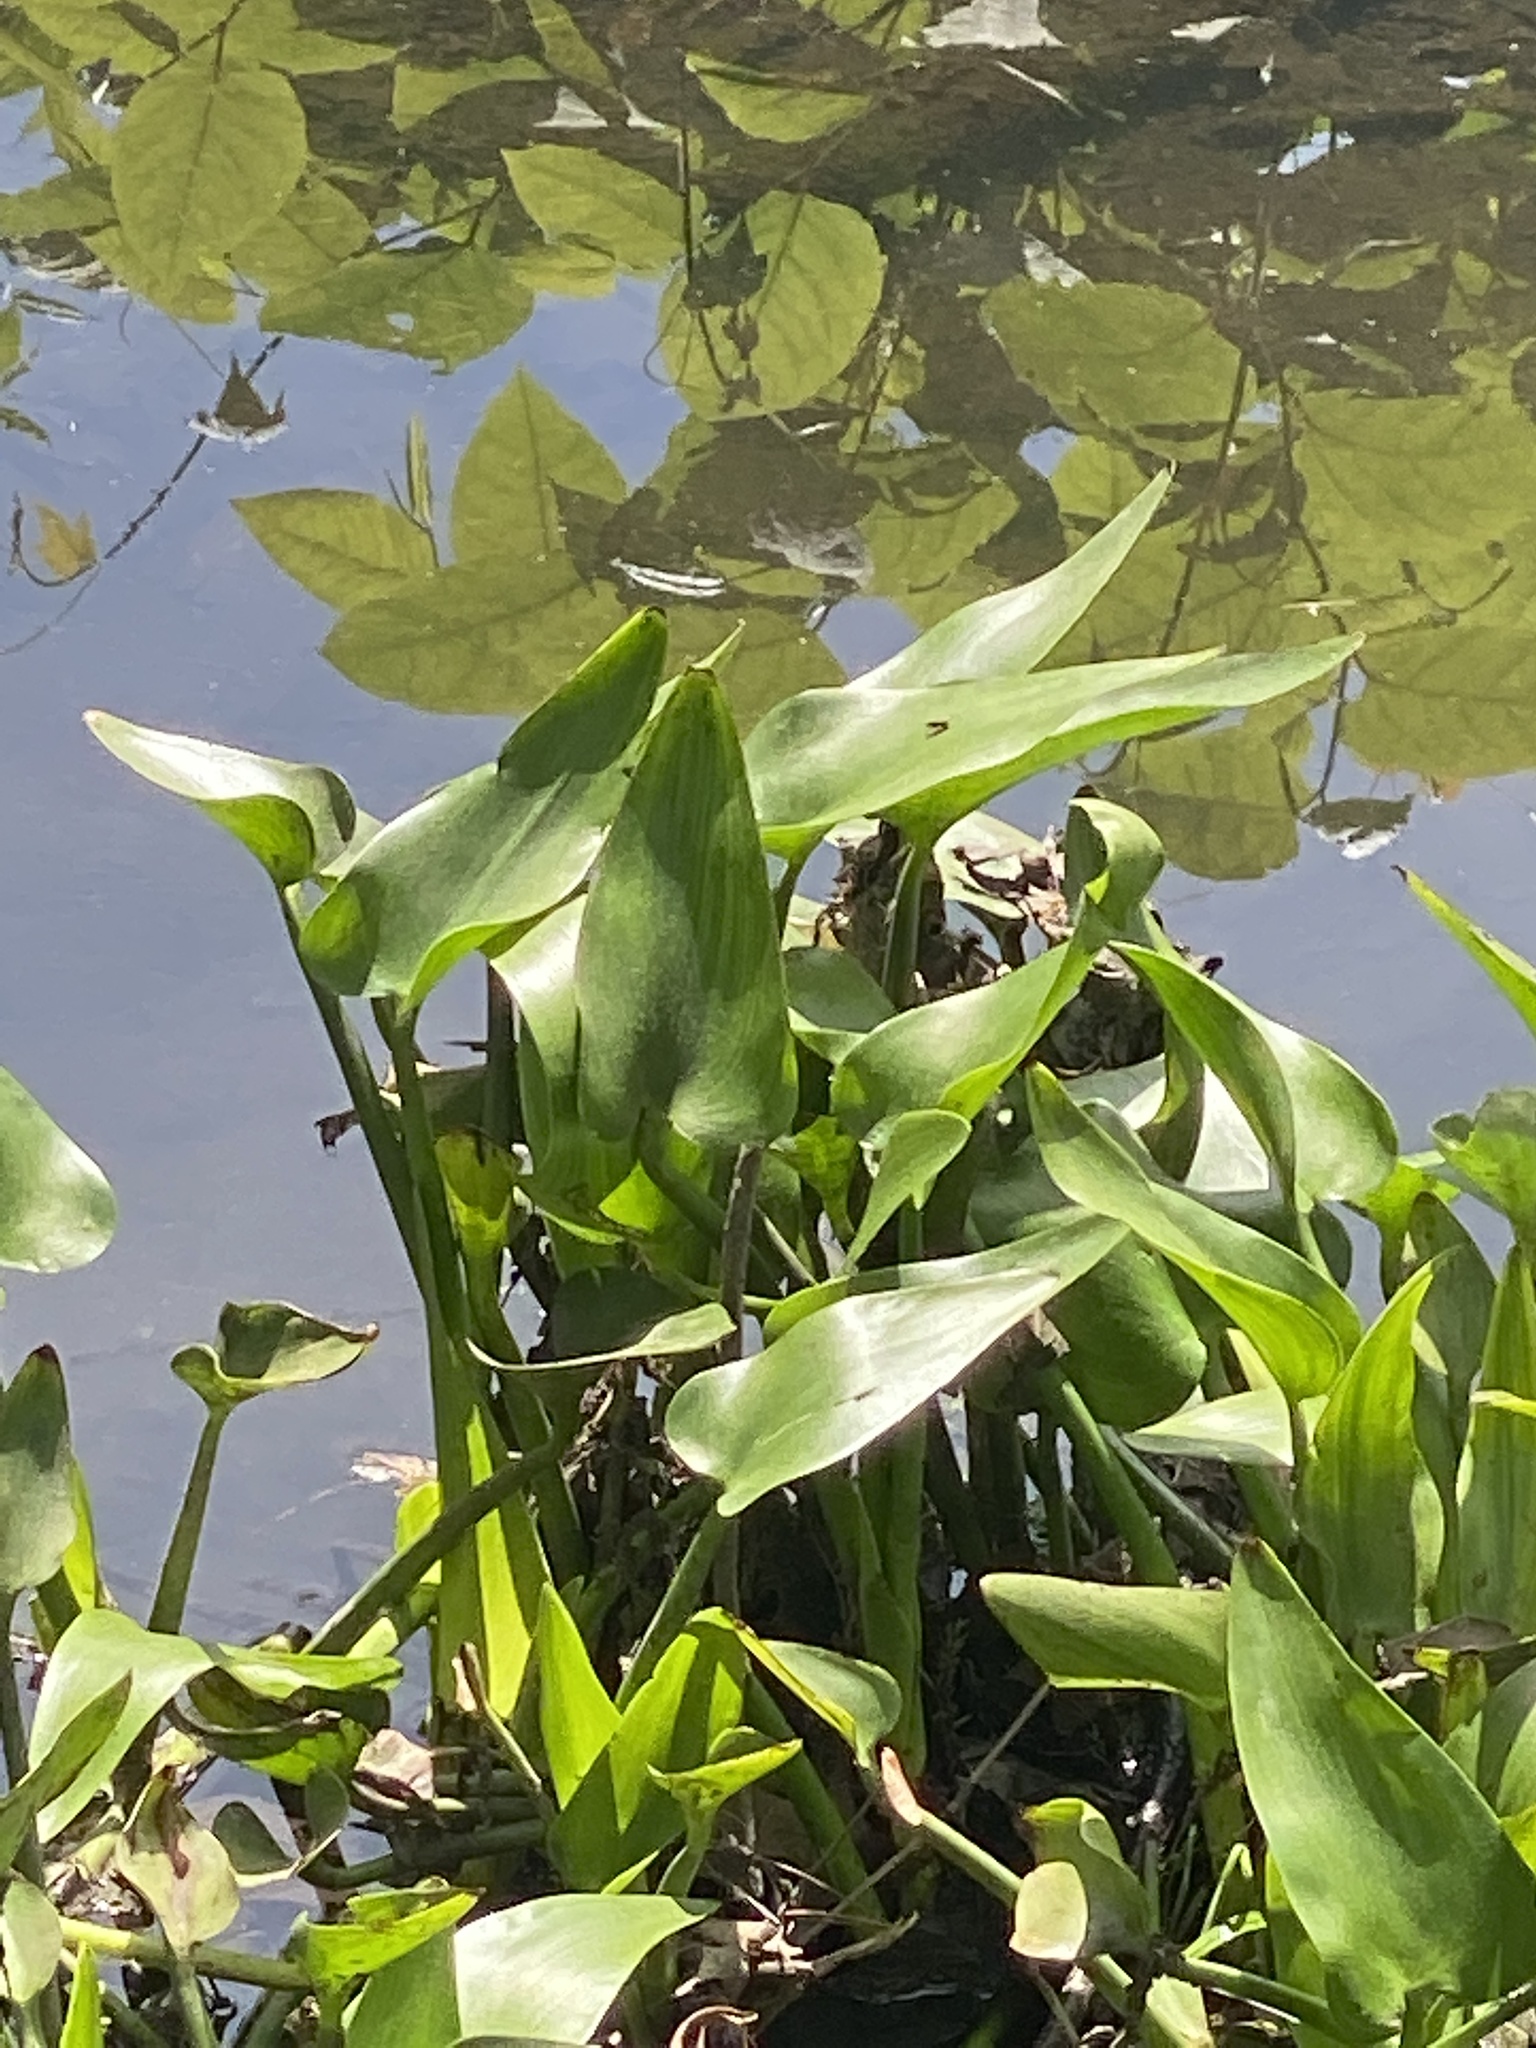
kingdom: Plantae
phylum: Tracheophyta
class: Liliopsida
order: Commelinales
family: Pontederiaceae
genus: Pontederia
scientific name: Pontederia cordata
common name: Pickerelweed
